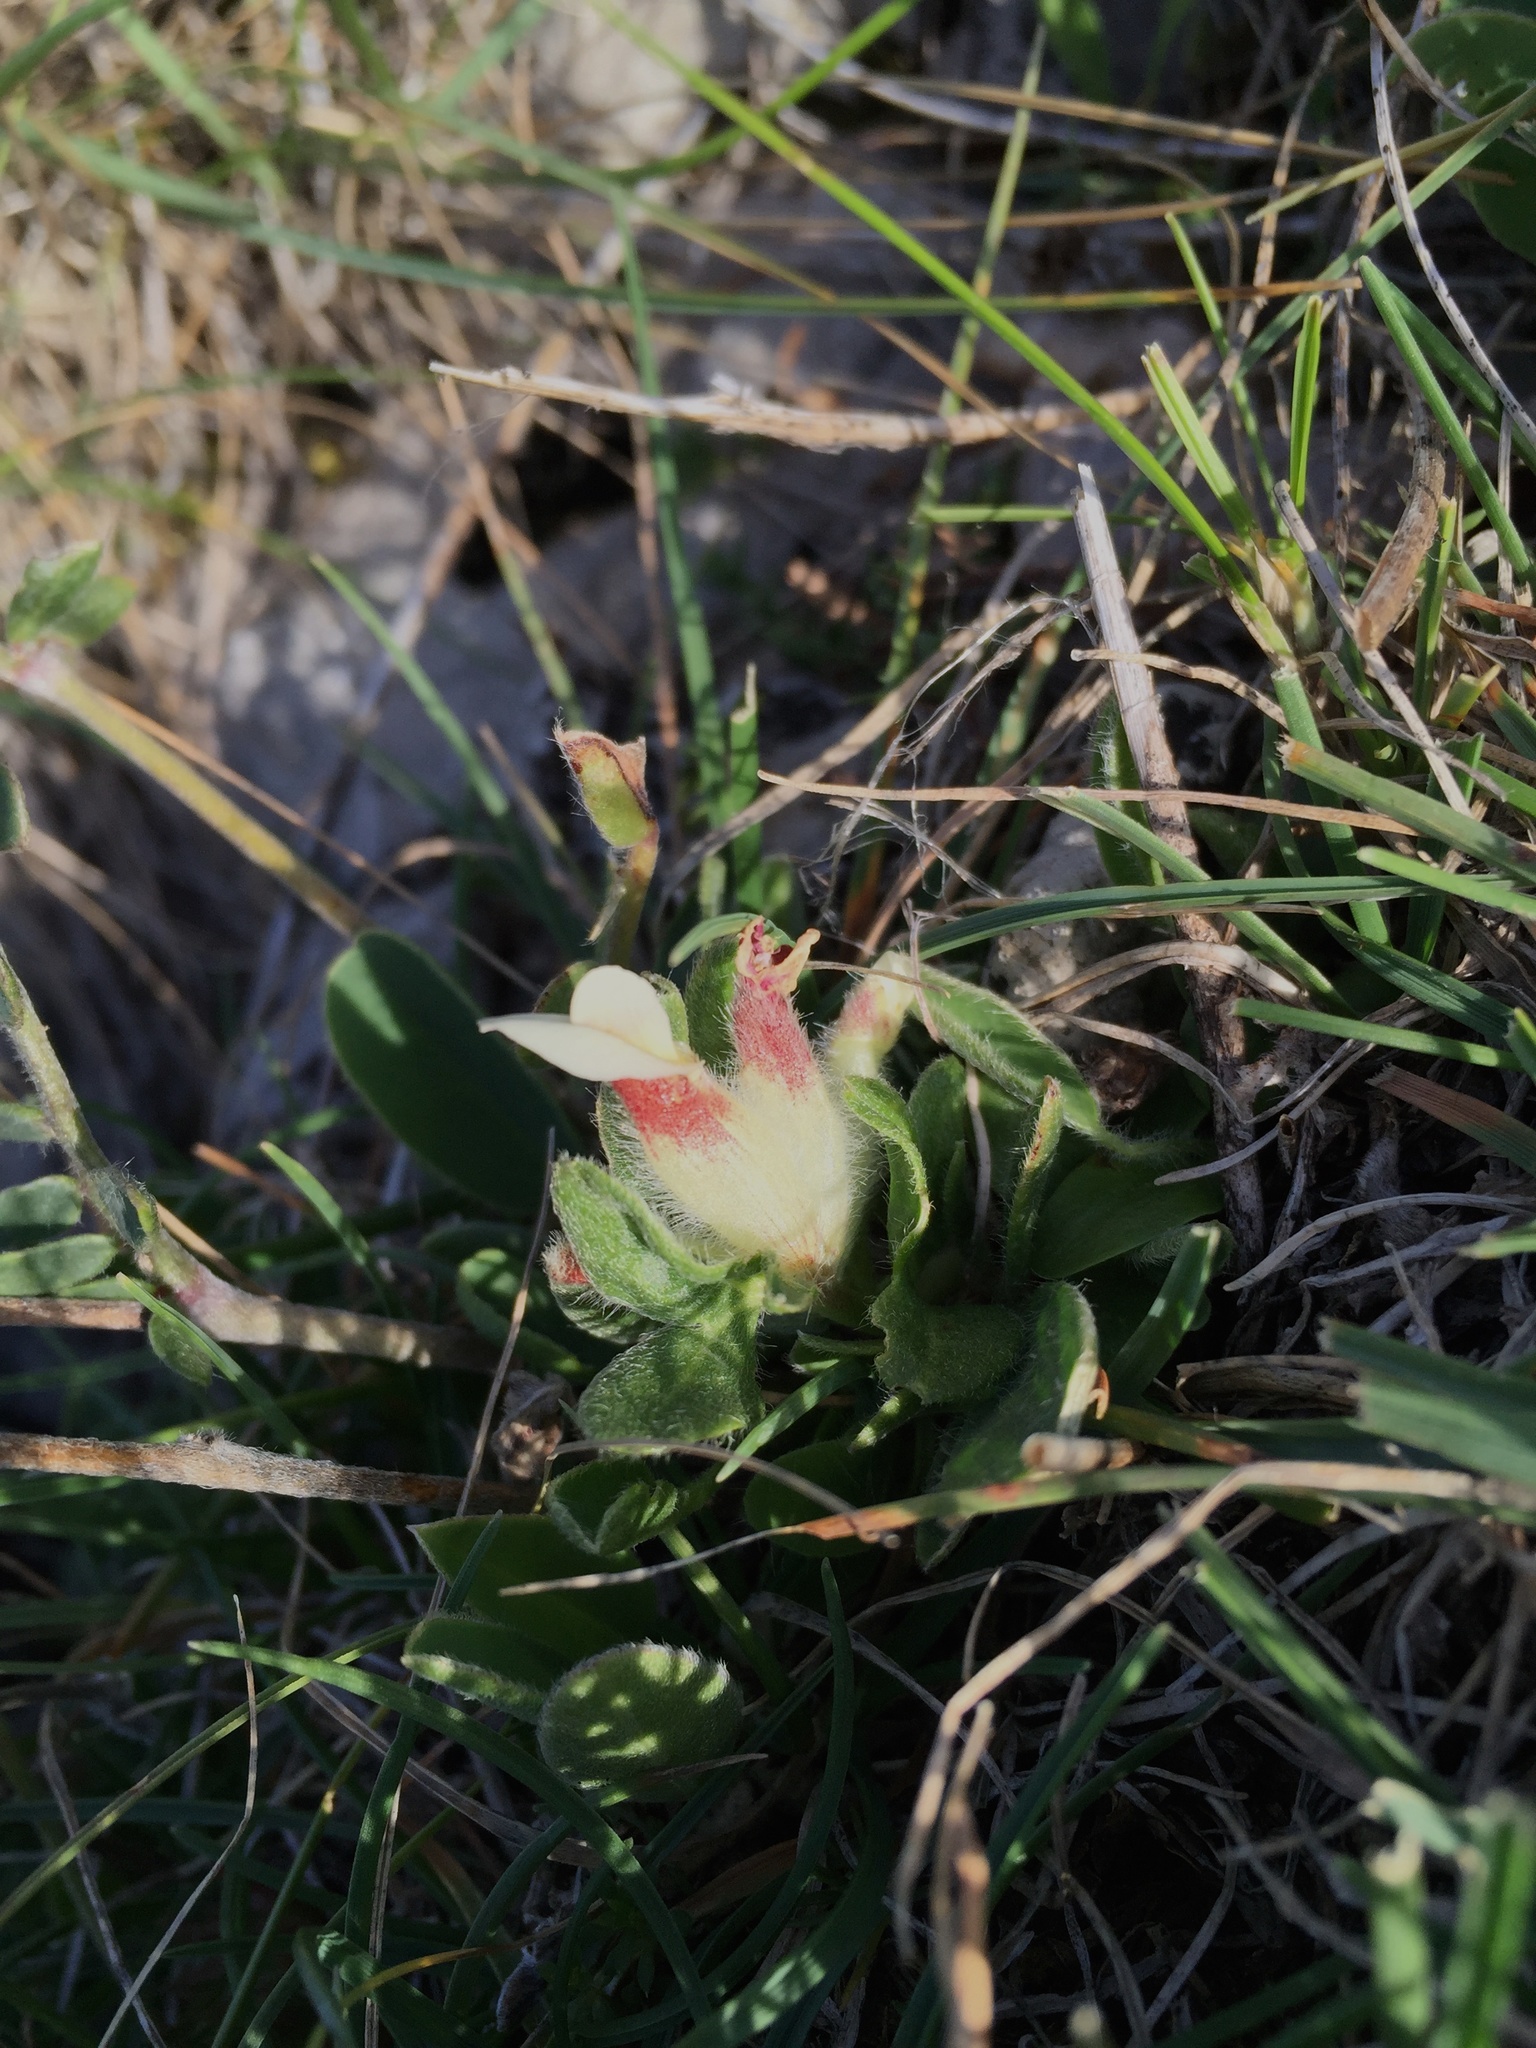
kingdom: Plantae
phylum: Tracheophyta
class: Magnoliopsida
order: Fabales
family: Fabaceae
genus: Tripodion
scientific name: Tripodion tetraphyllum
